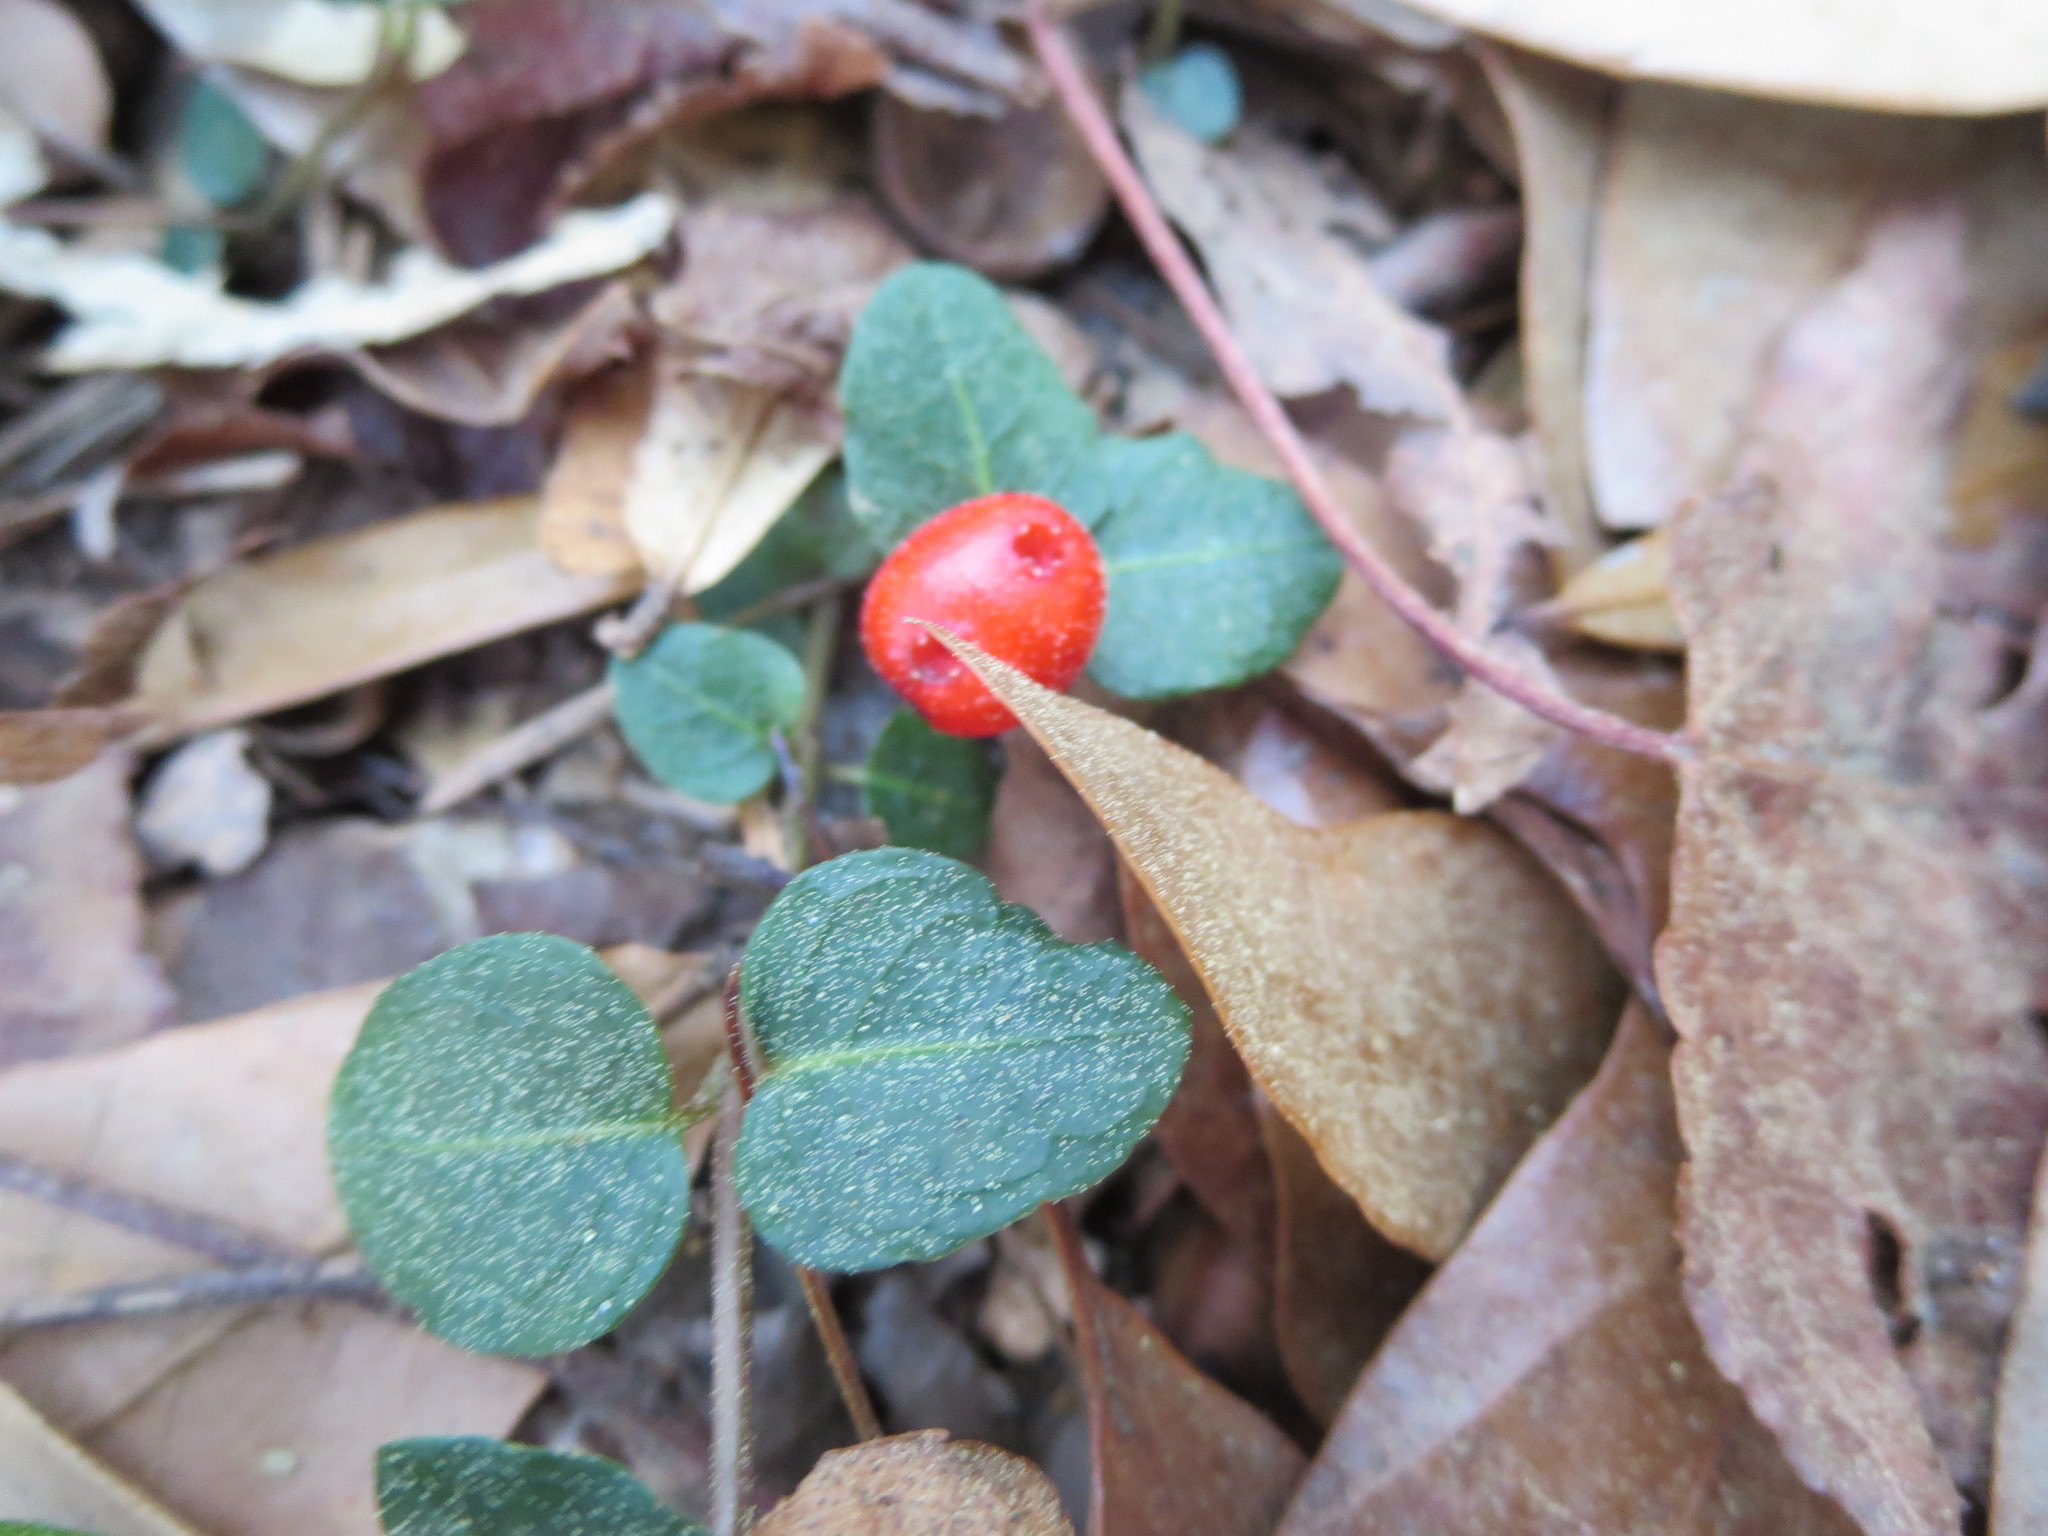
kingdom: Plantae
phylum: Tracheophyta
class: Magnoliopsida
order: Gentianales
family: Rubiaceae
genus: Mitchella
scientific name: Mitchella repens
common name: Partridge-berry
